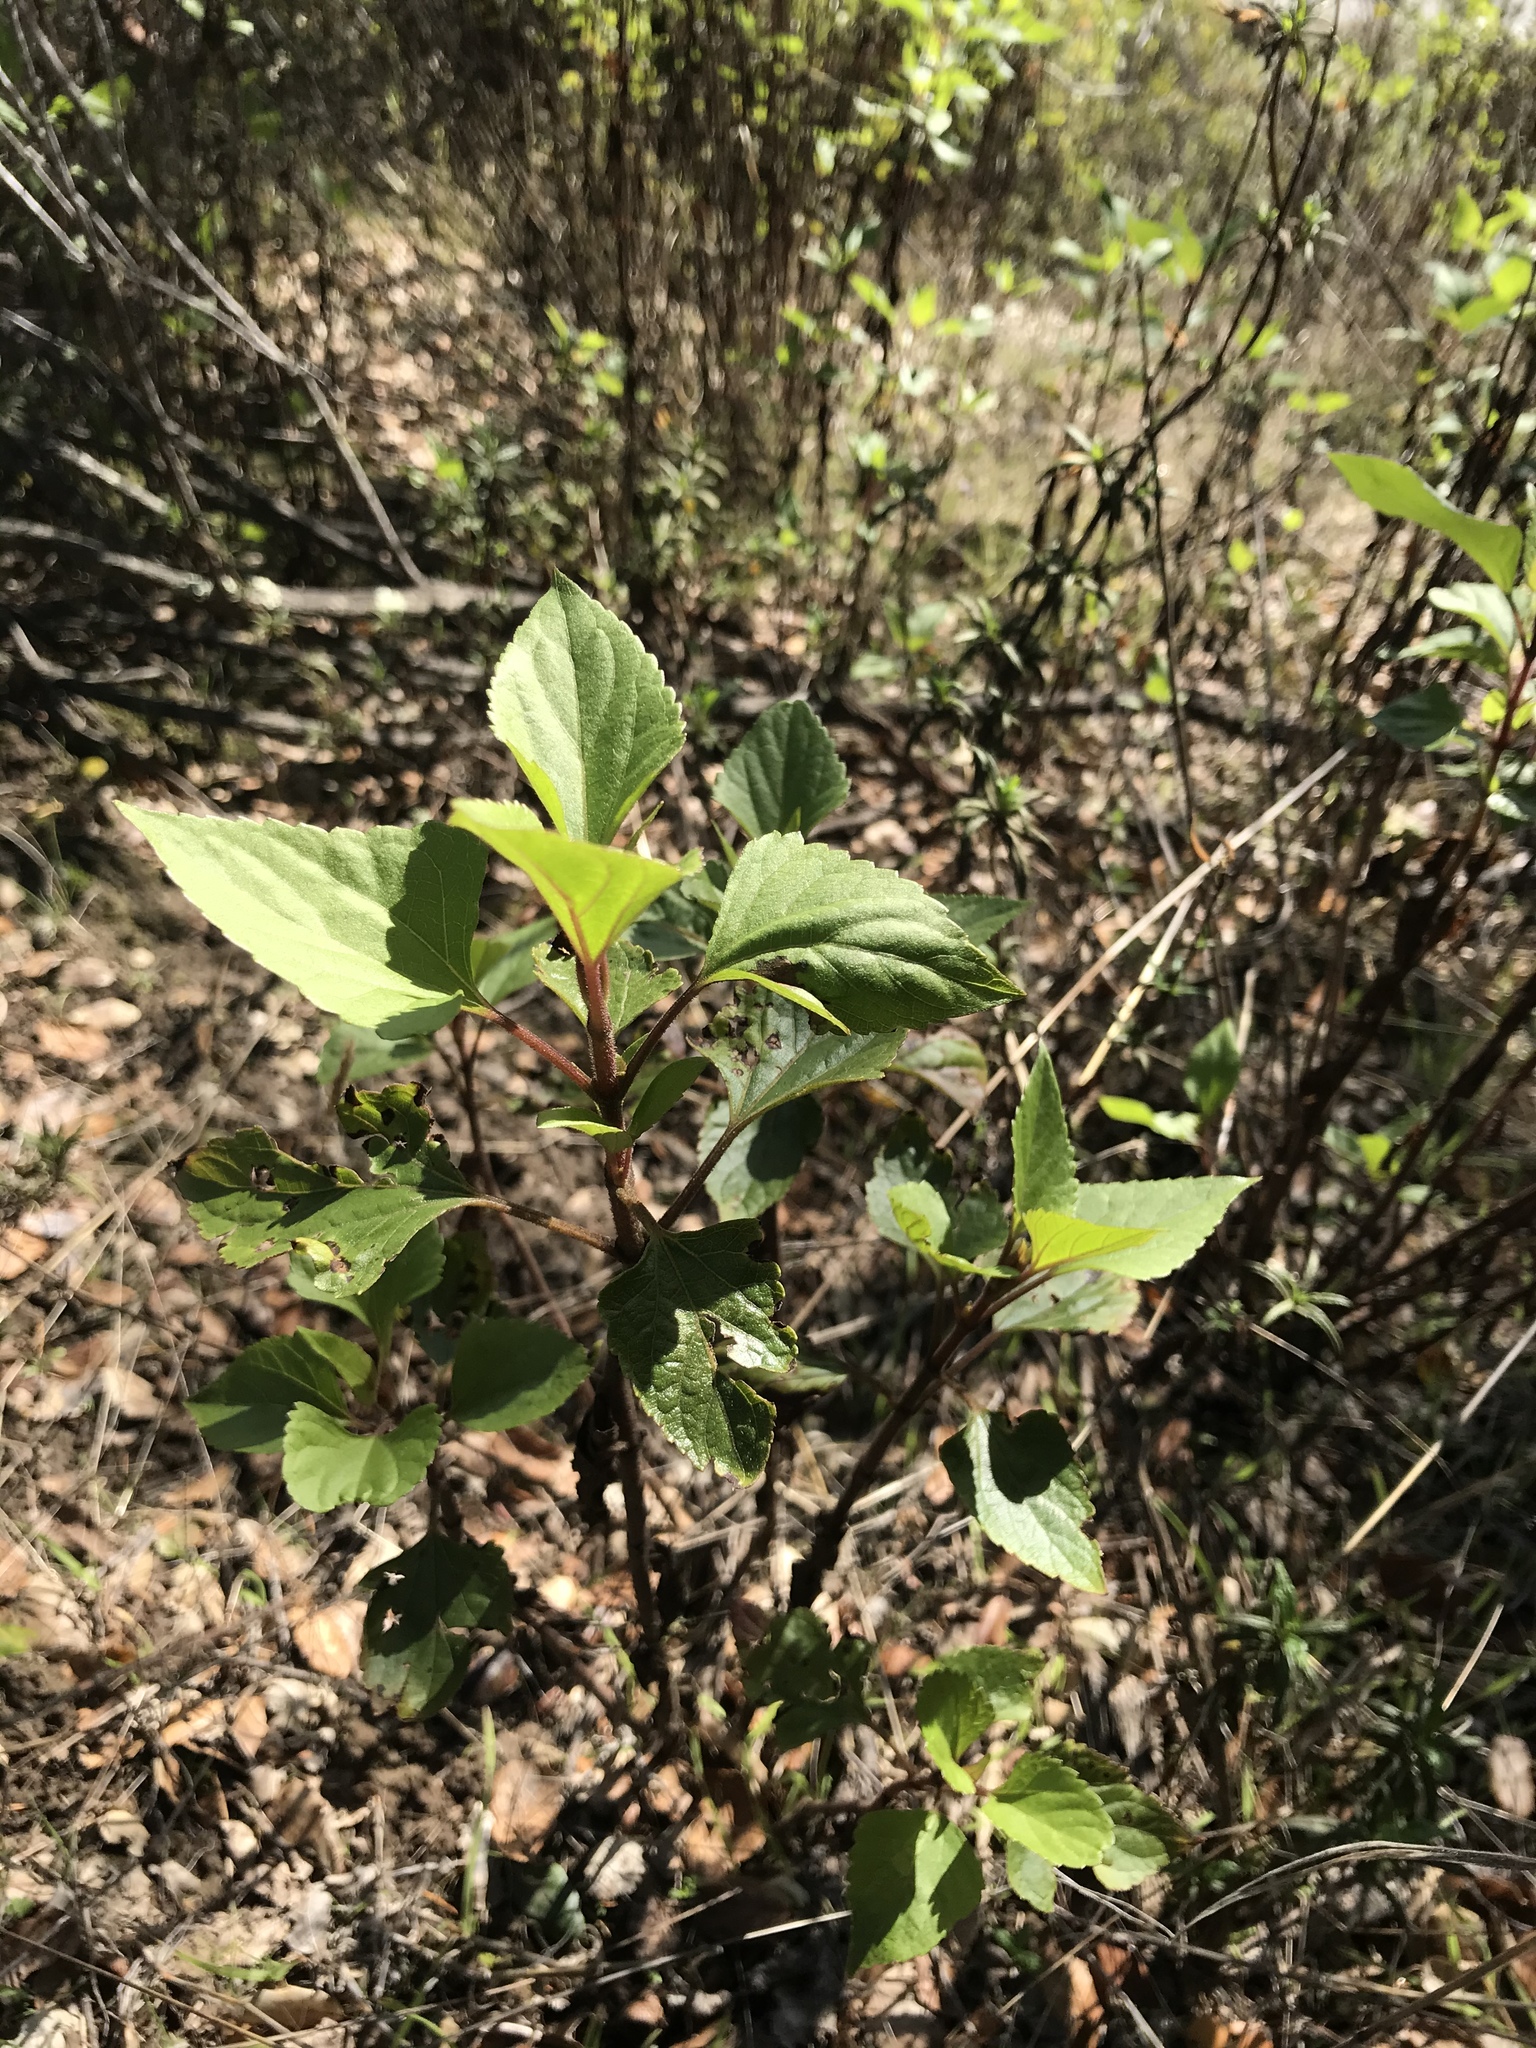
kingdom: Plantae
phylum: Tracheophyta
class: Magnoliopsida
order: Asterales
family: Asteraceae
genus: Ageratina
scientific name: Ageratina adenophora
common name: Sticky snakeroot
